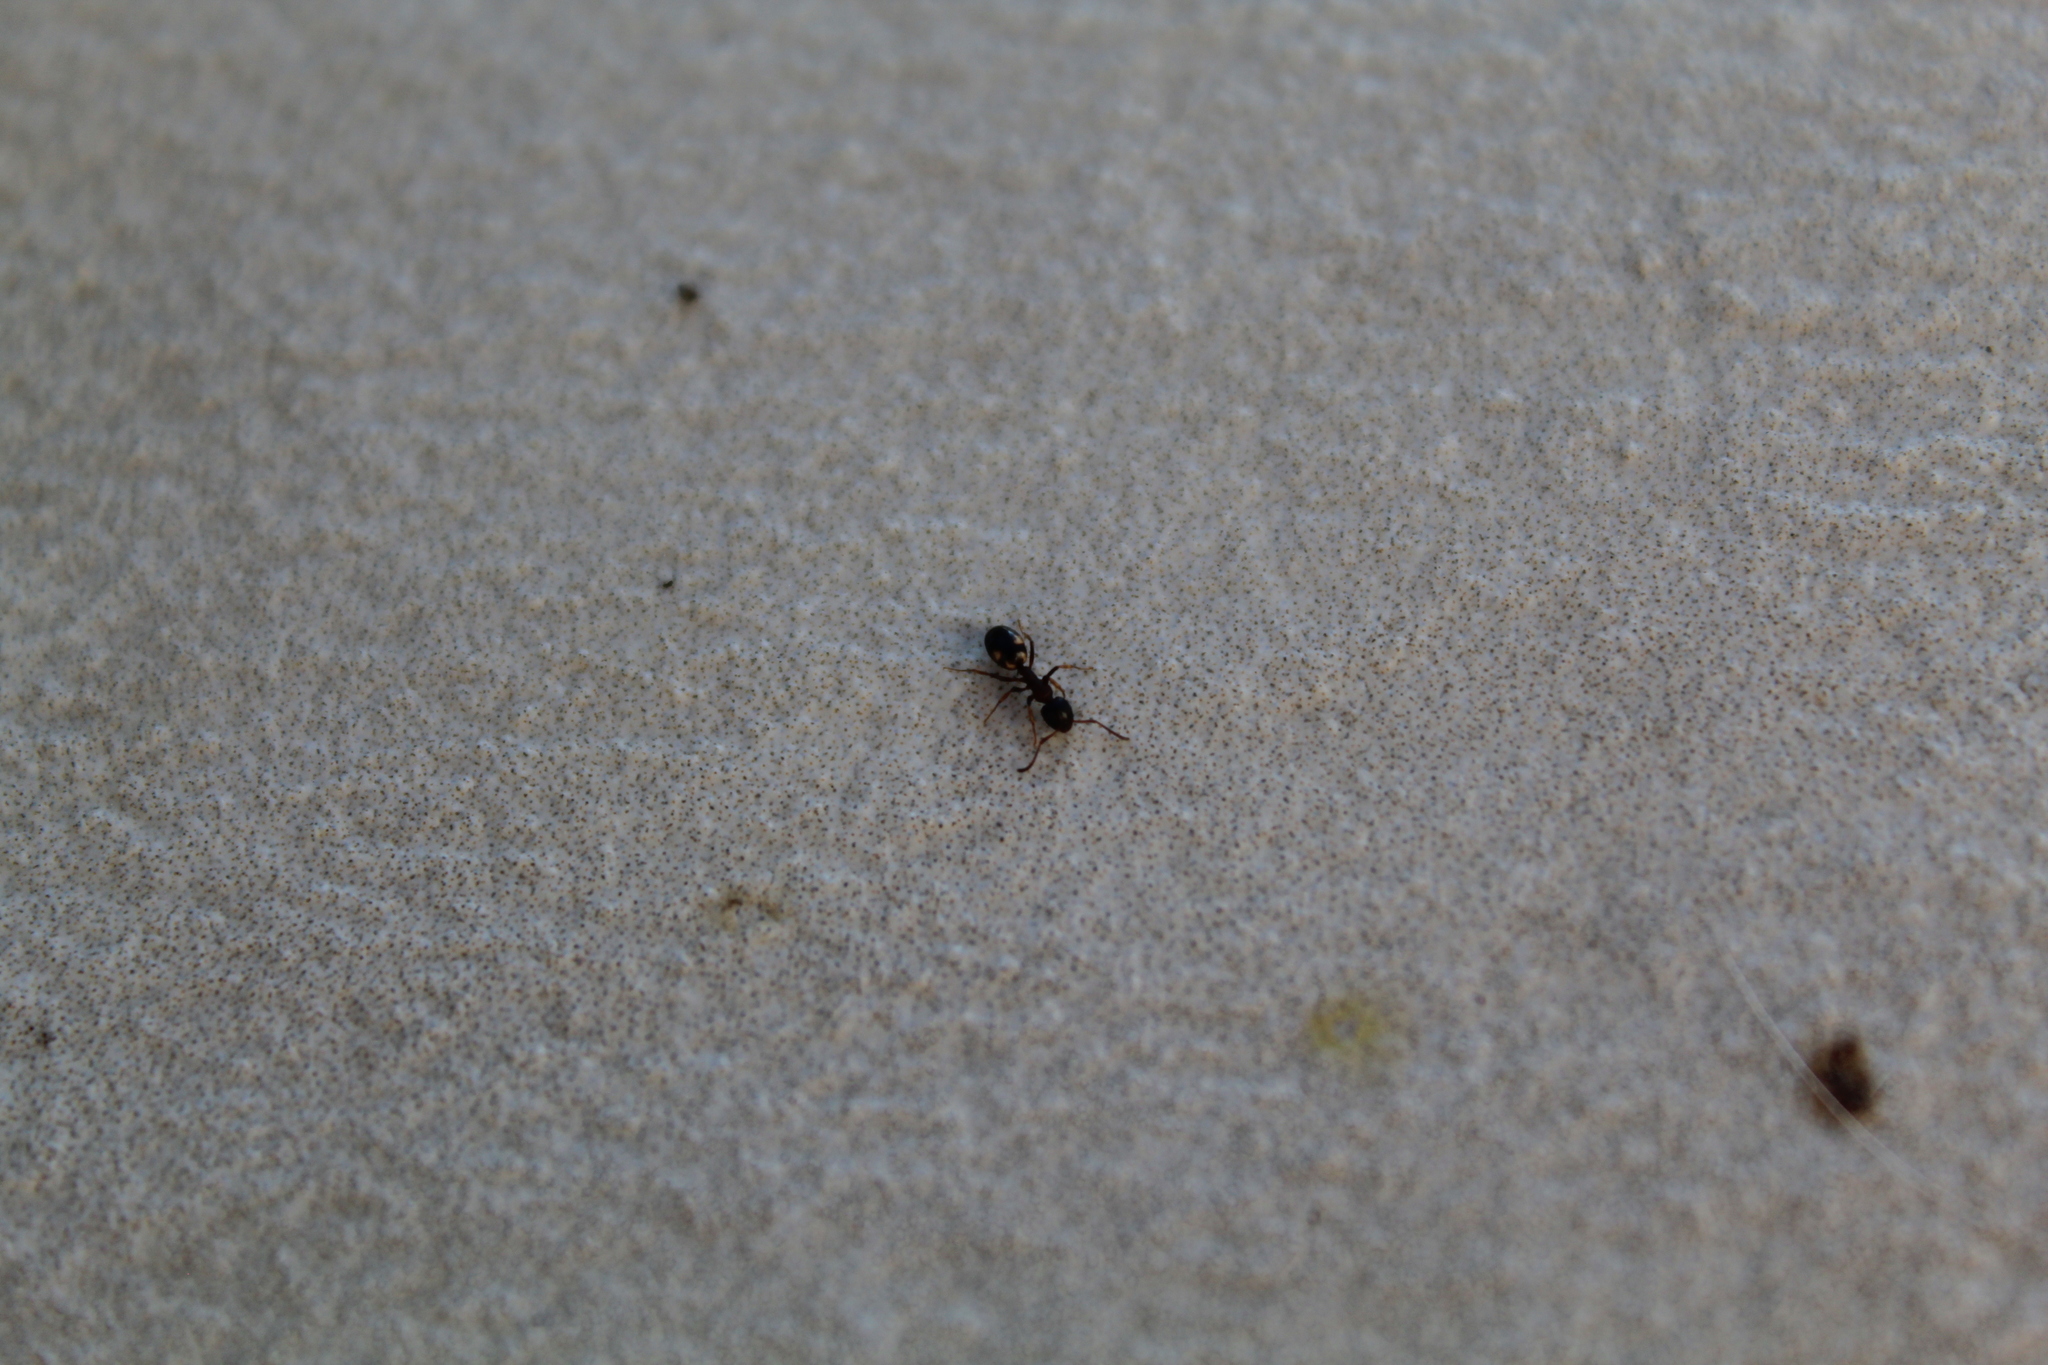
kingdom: Animalia
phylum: Arthropoda
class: Insecta
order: Hymenoptera
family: Formicidae
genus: Dolichoderus
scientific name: Dolichoderus quadripunctatus
